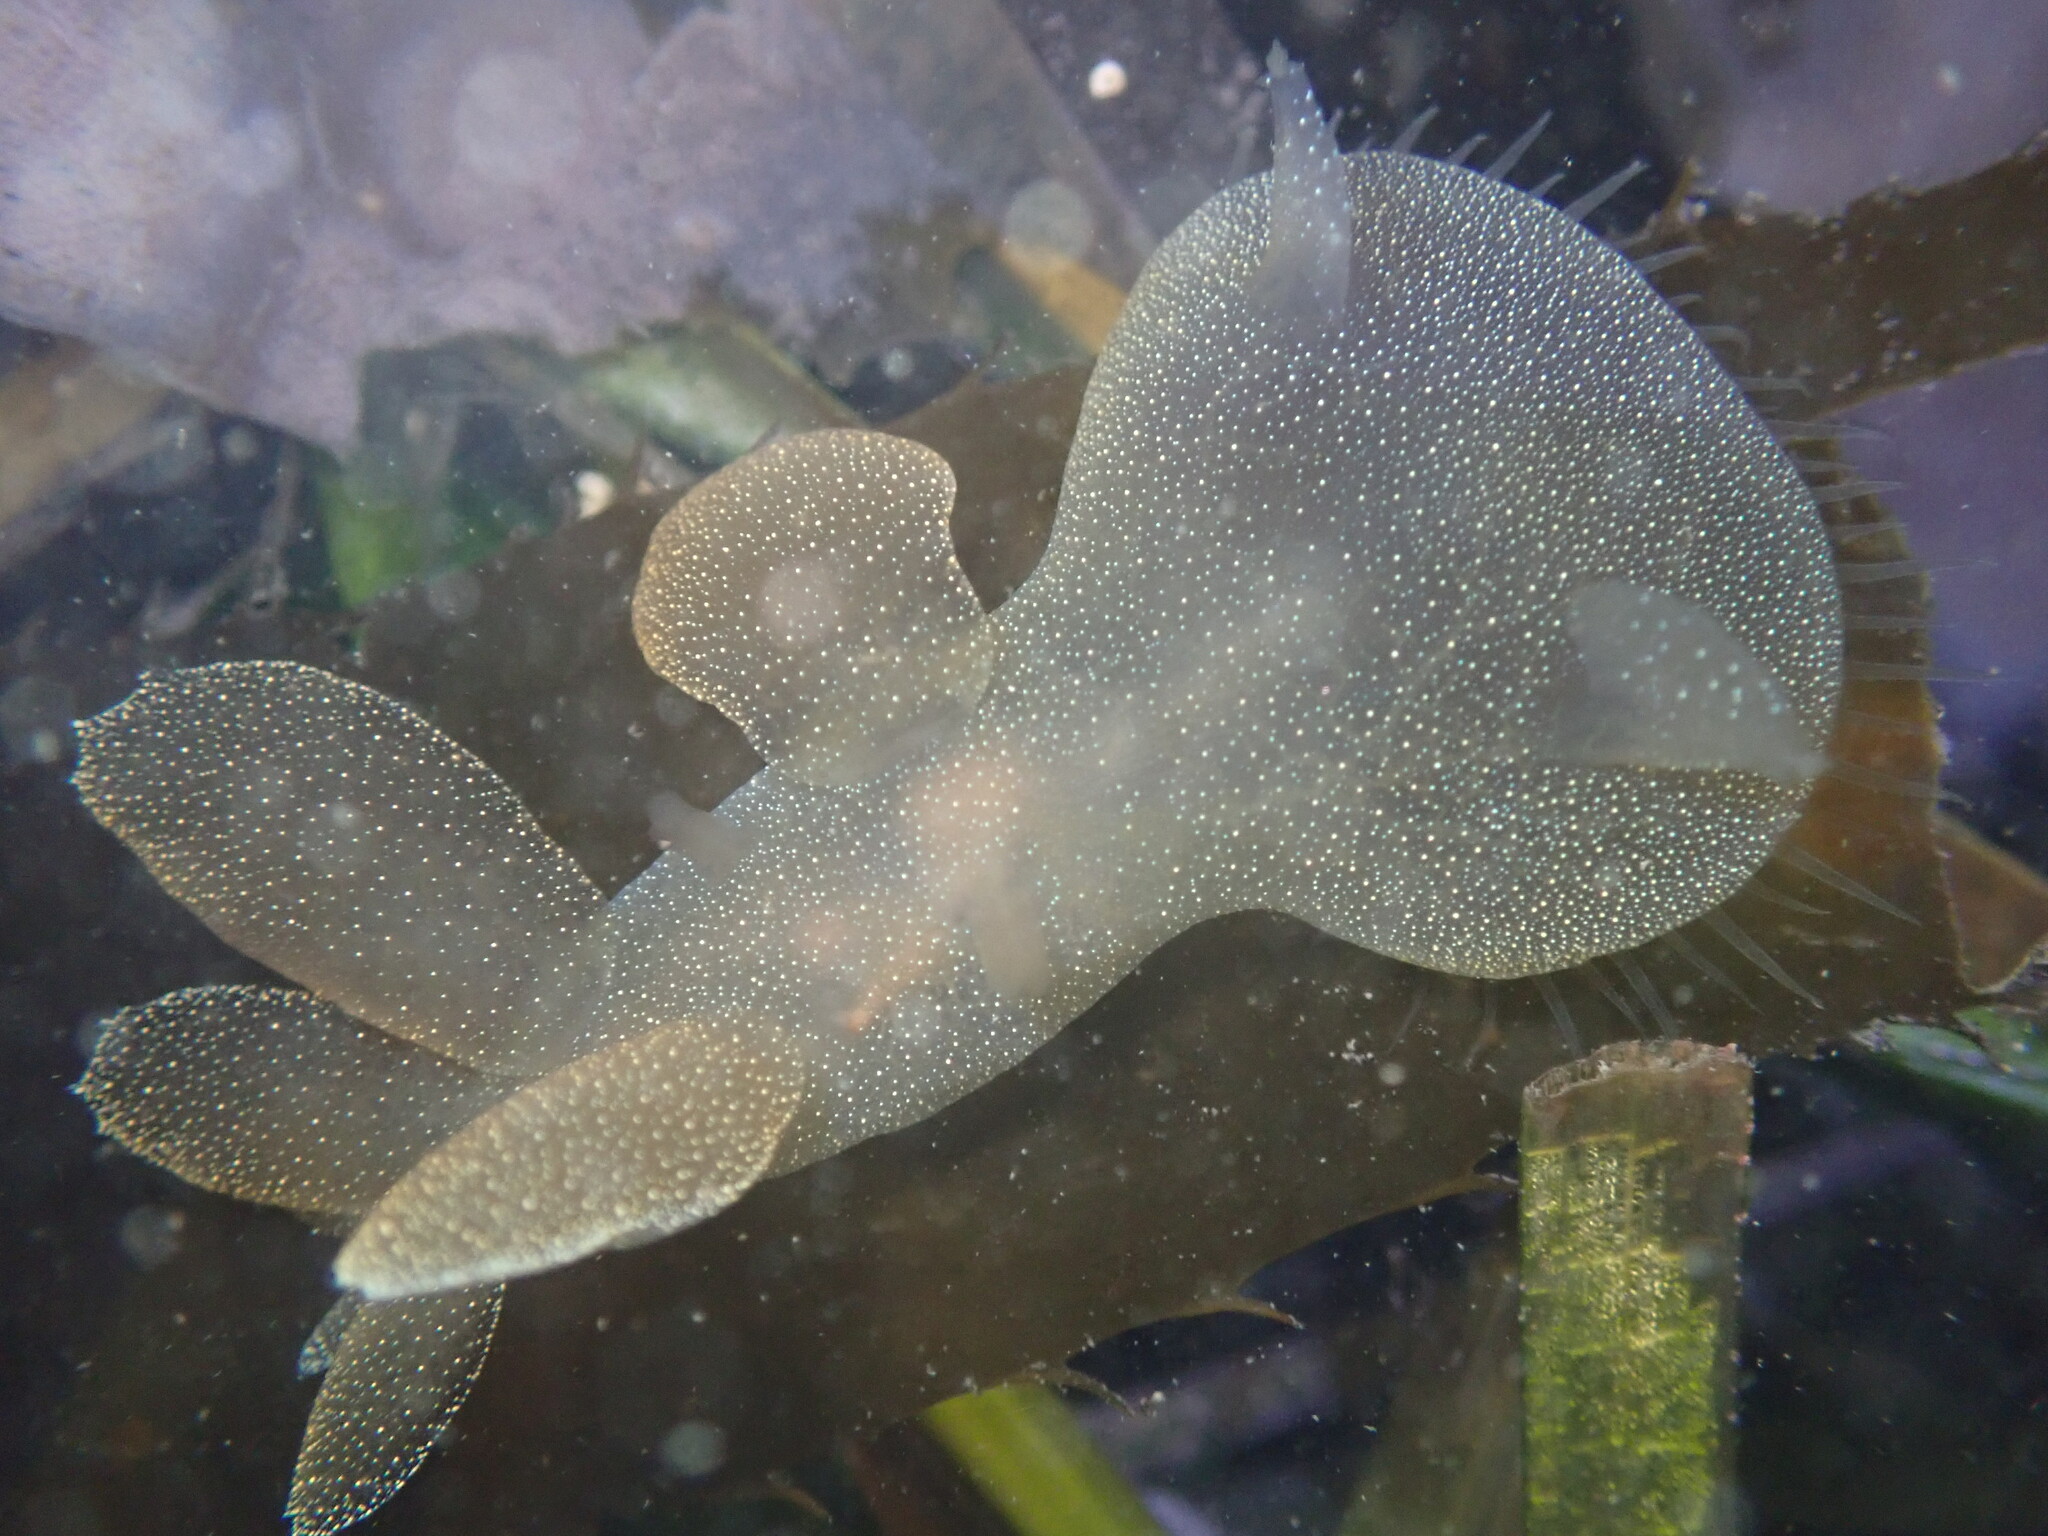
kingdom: Animalia
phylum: Mollusca
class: Gastropoda
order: Nudibranchia
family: Tethydidae
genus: Melibe
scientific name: Melibe leonina
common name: Lion nudibranch
